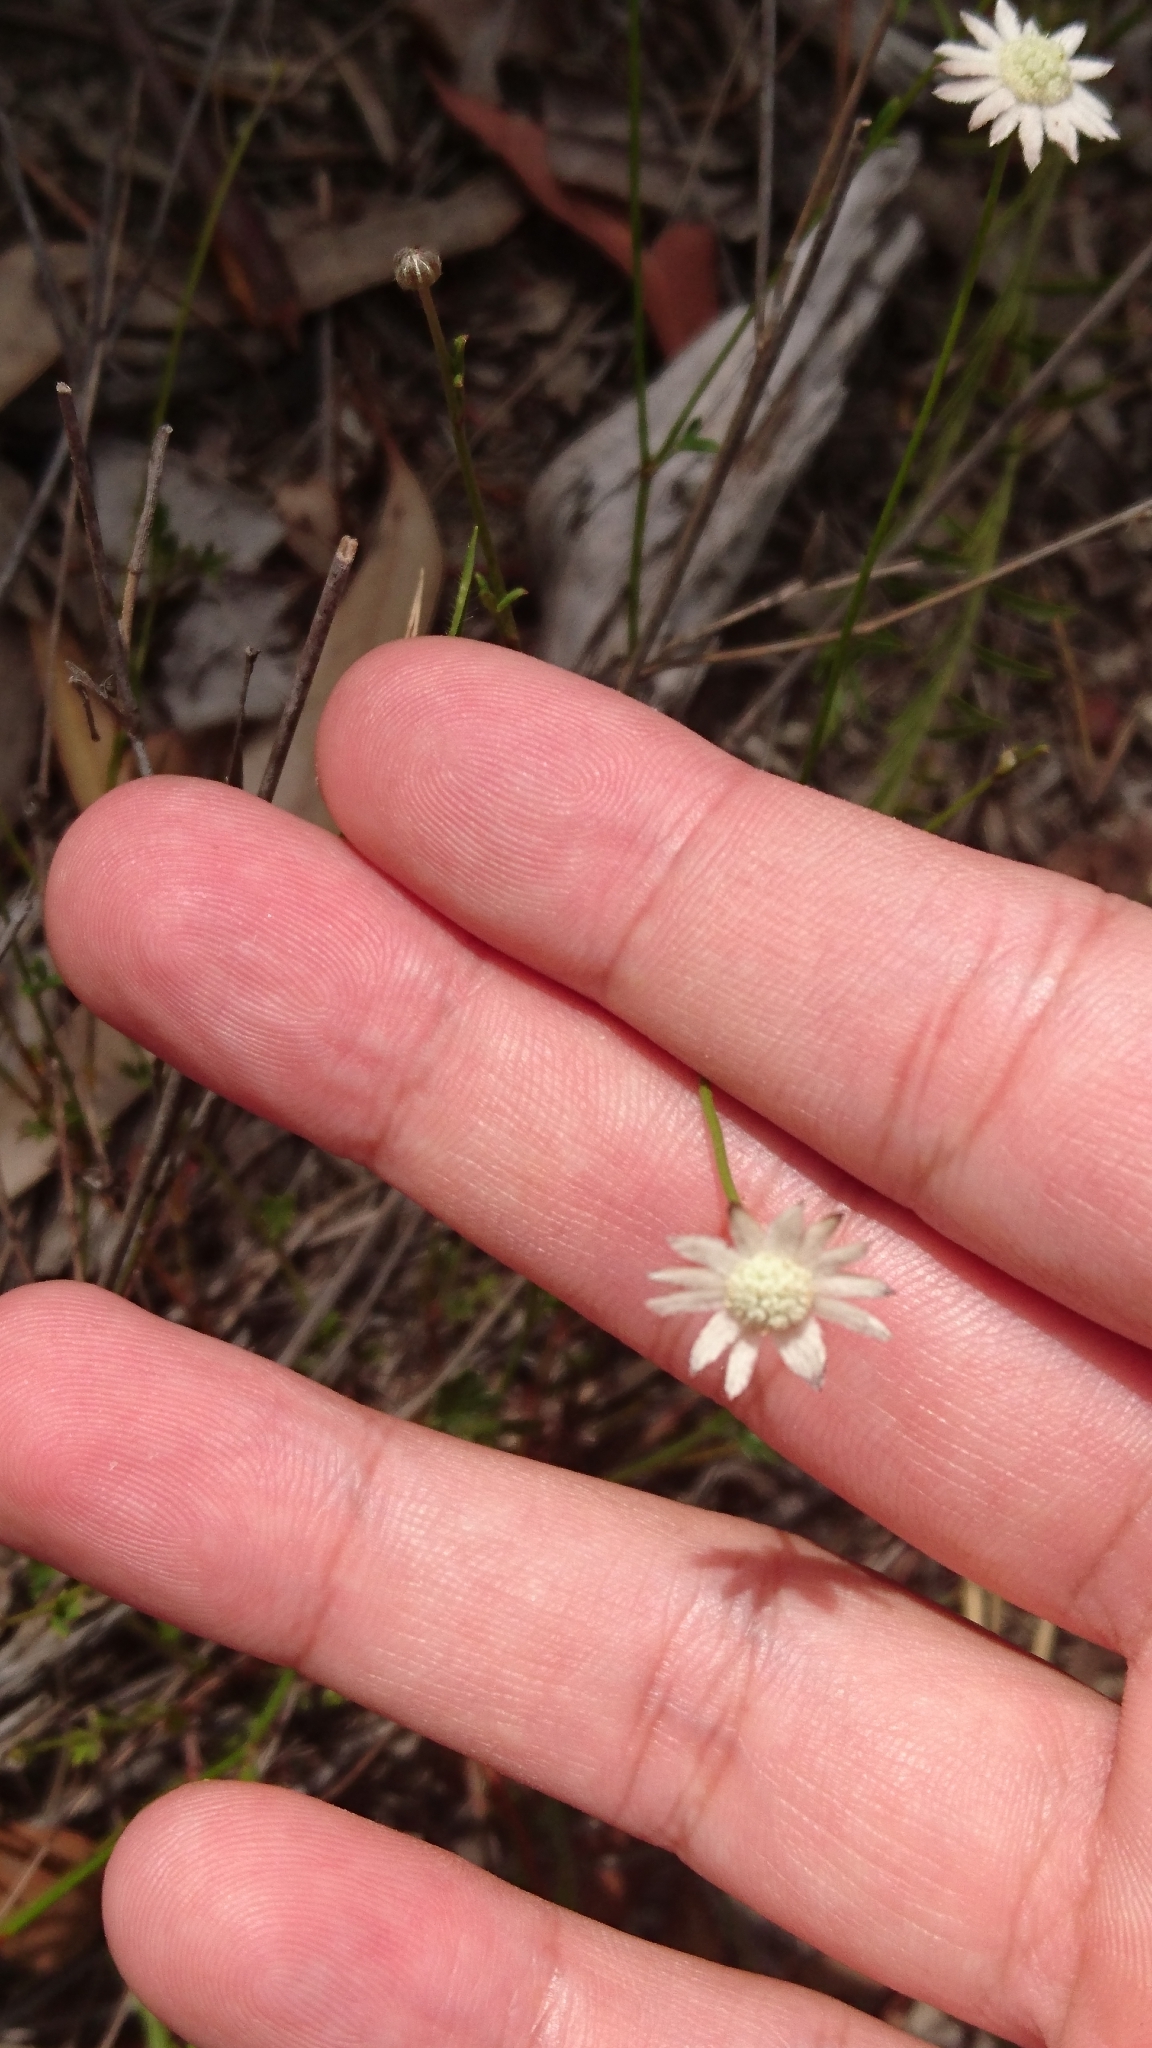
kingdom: Plantae
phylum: Tracheophyta
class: Magnoliopsida
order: Apiales
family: Apiaceae
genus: Actinotus
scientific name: Actinotus minor
